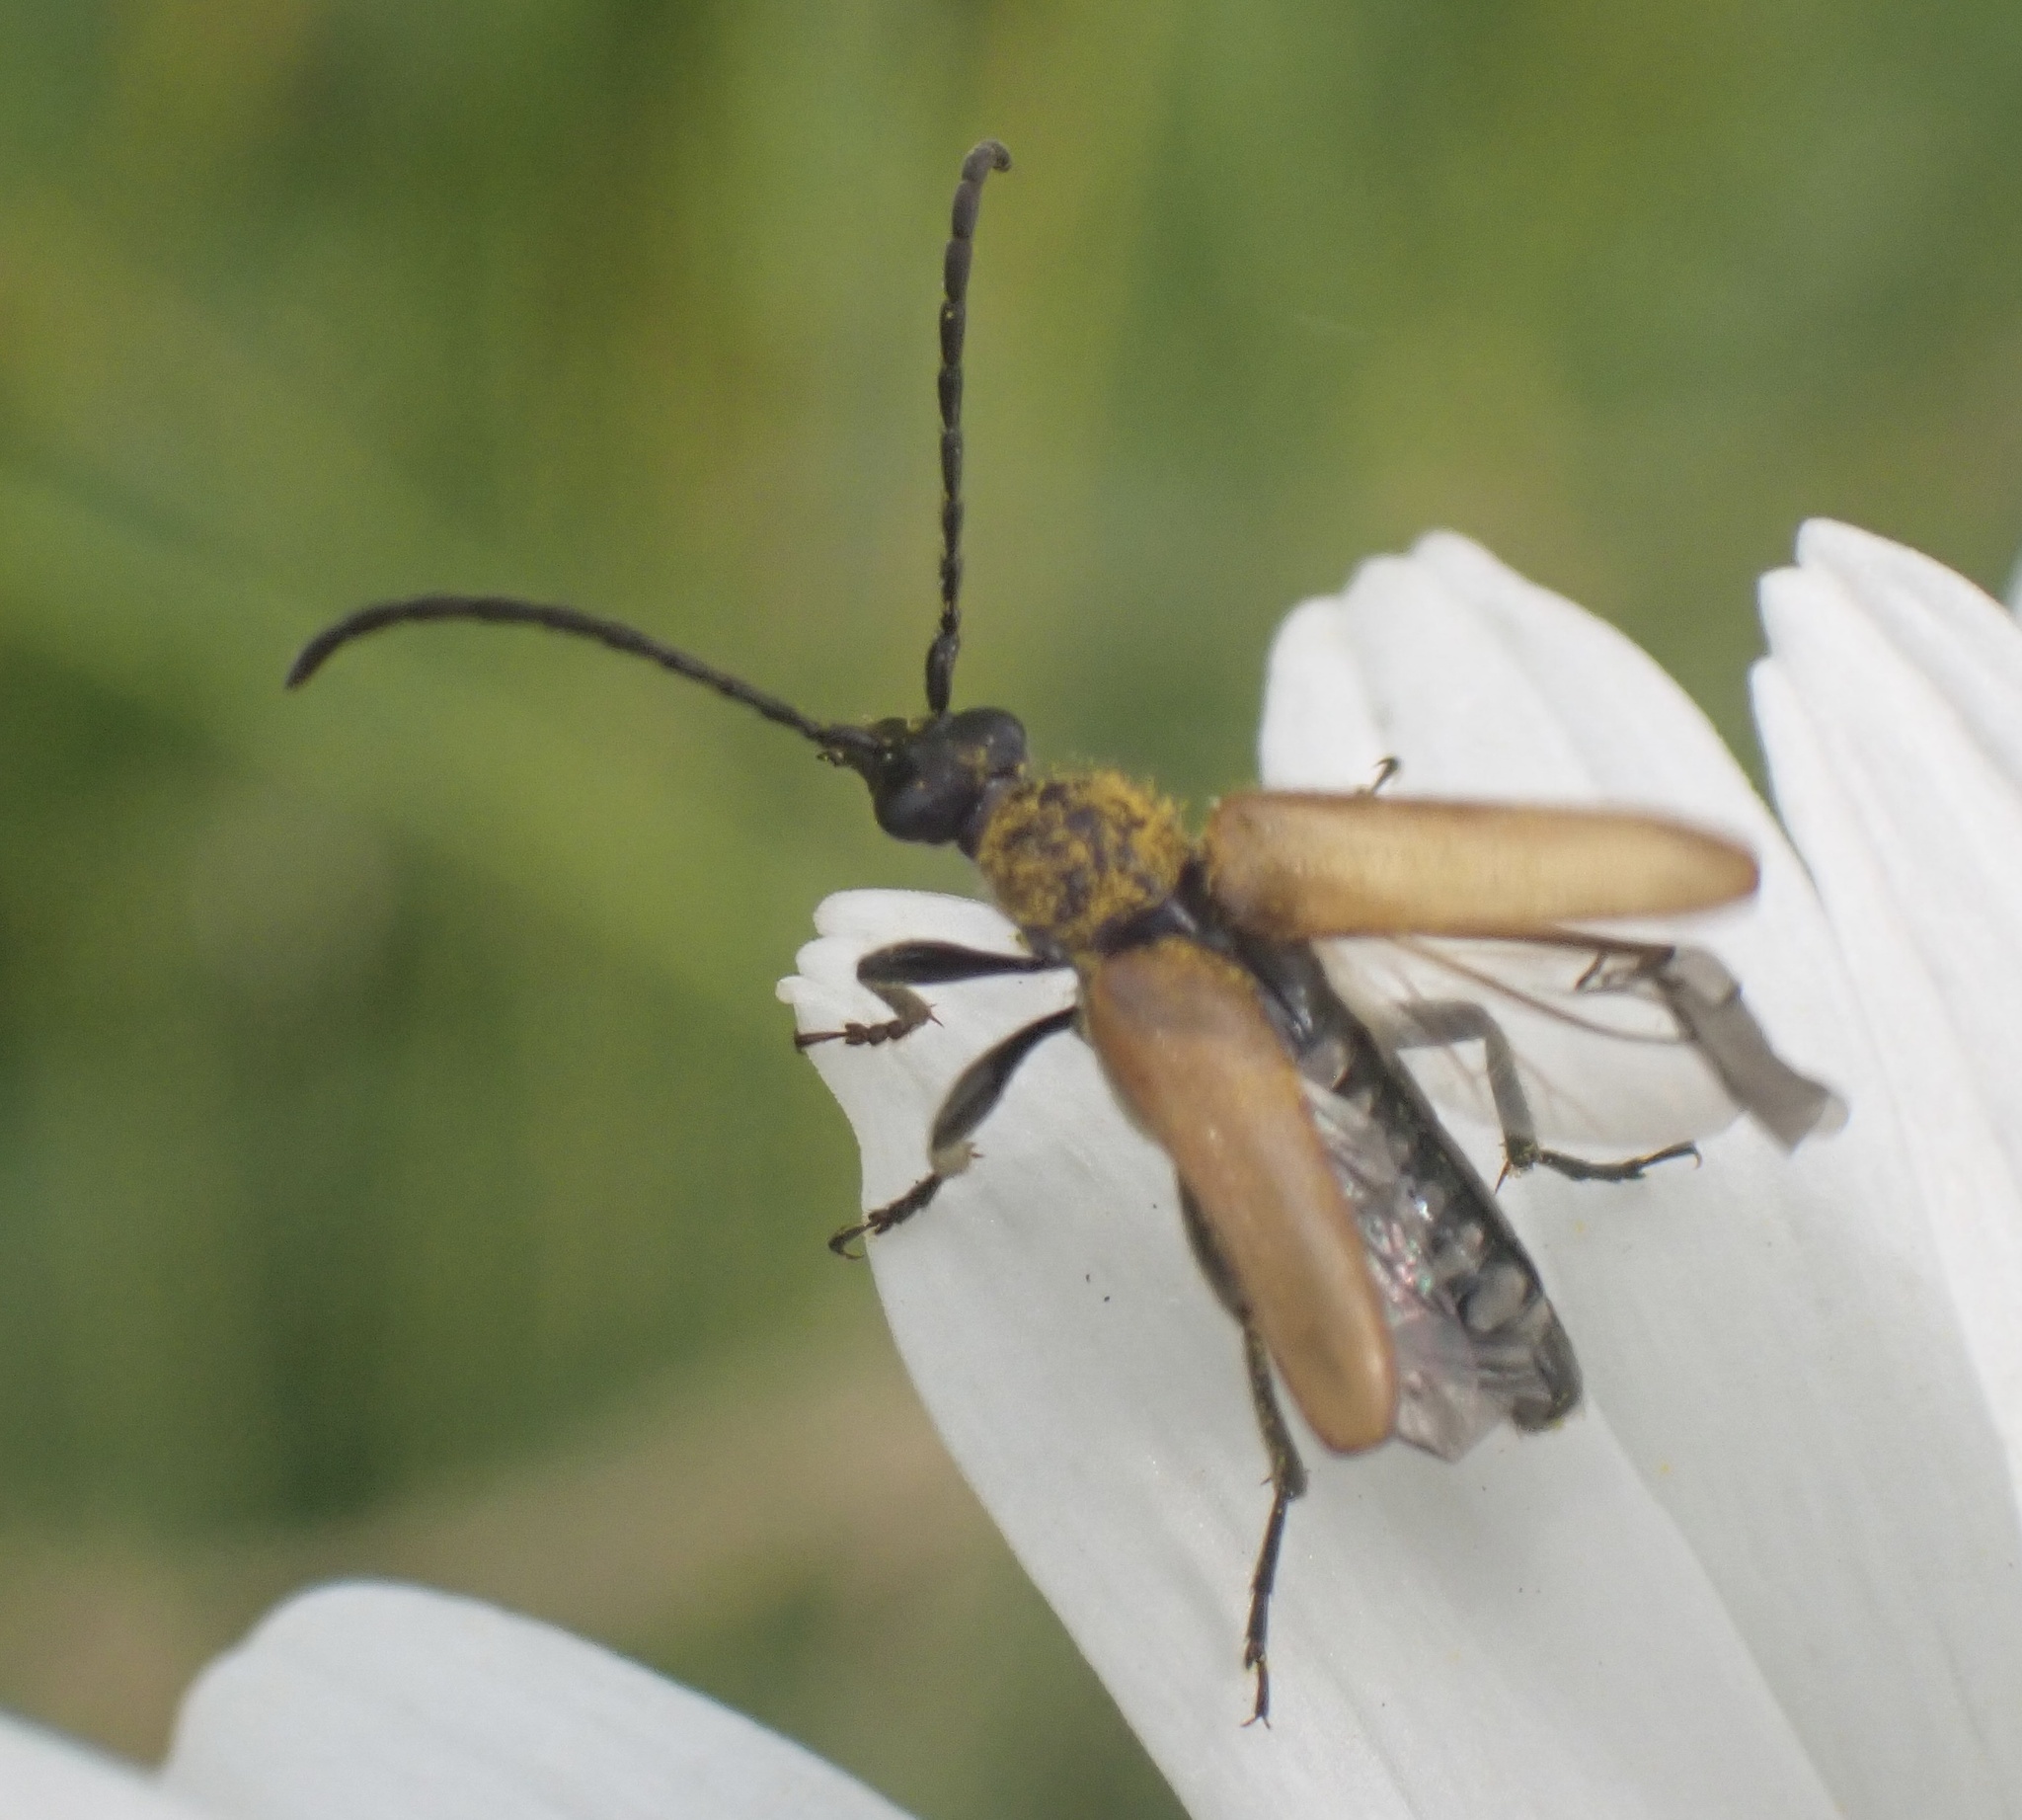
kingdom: Animalia
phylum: Arthropoda
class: Insecta
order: Coleoptera
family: Cerambycidae
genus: Pseudovadonia
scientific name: Pseudovadonia livida
